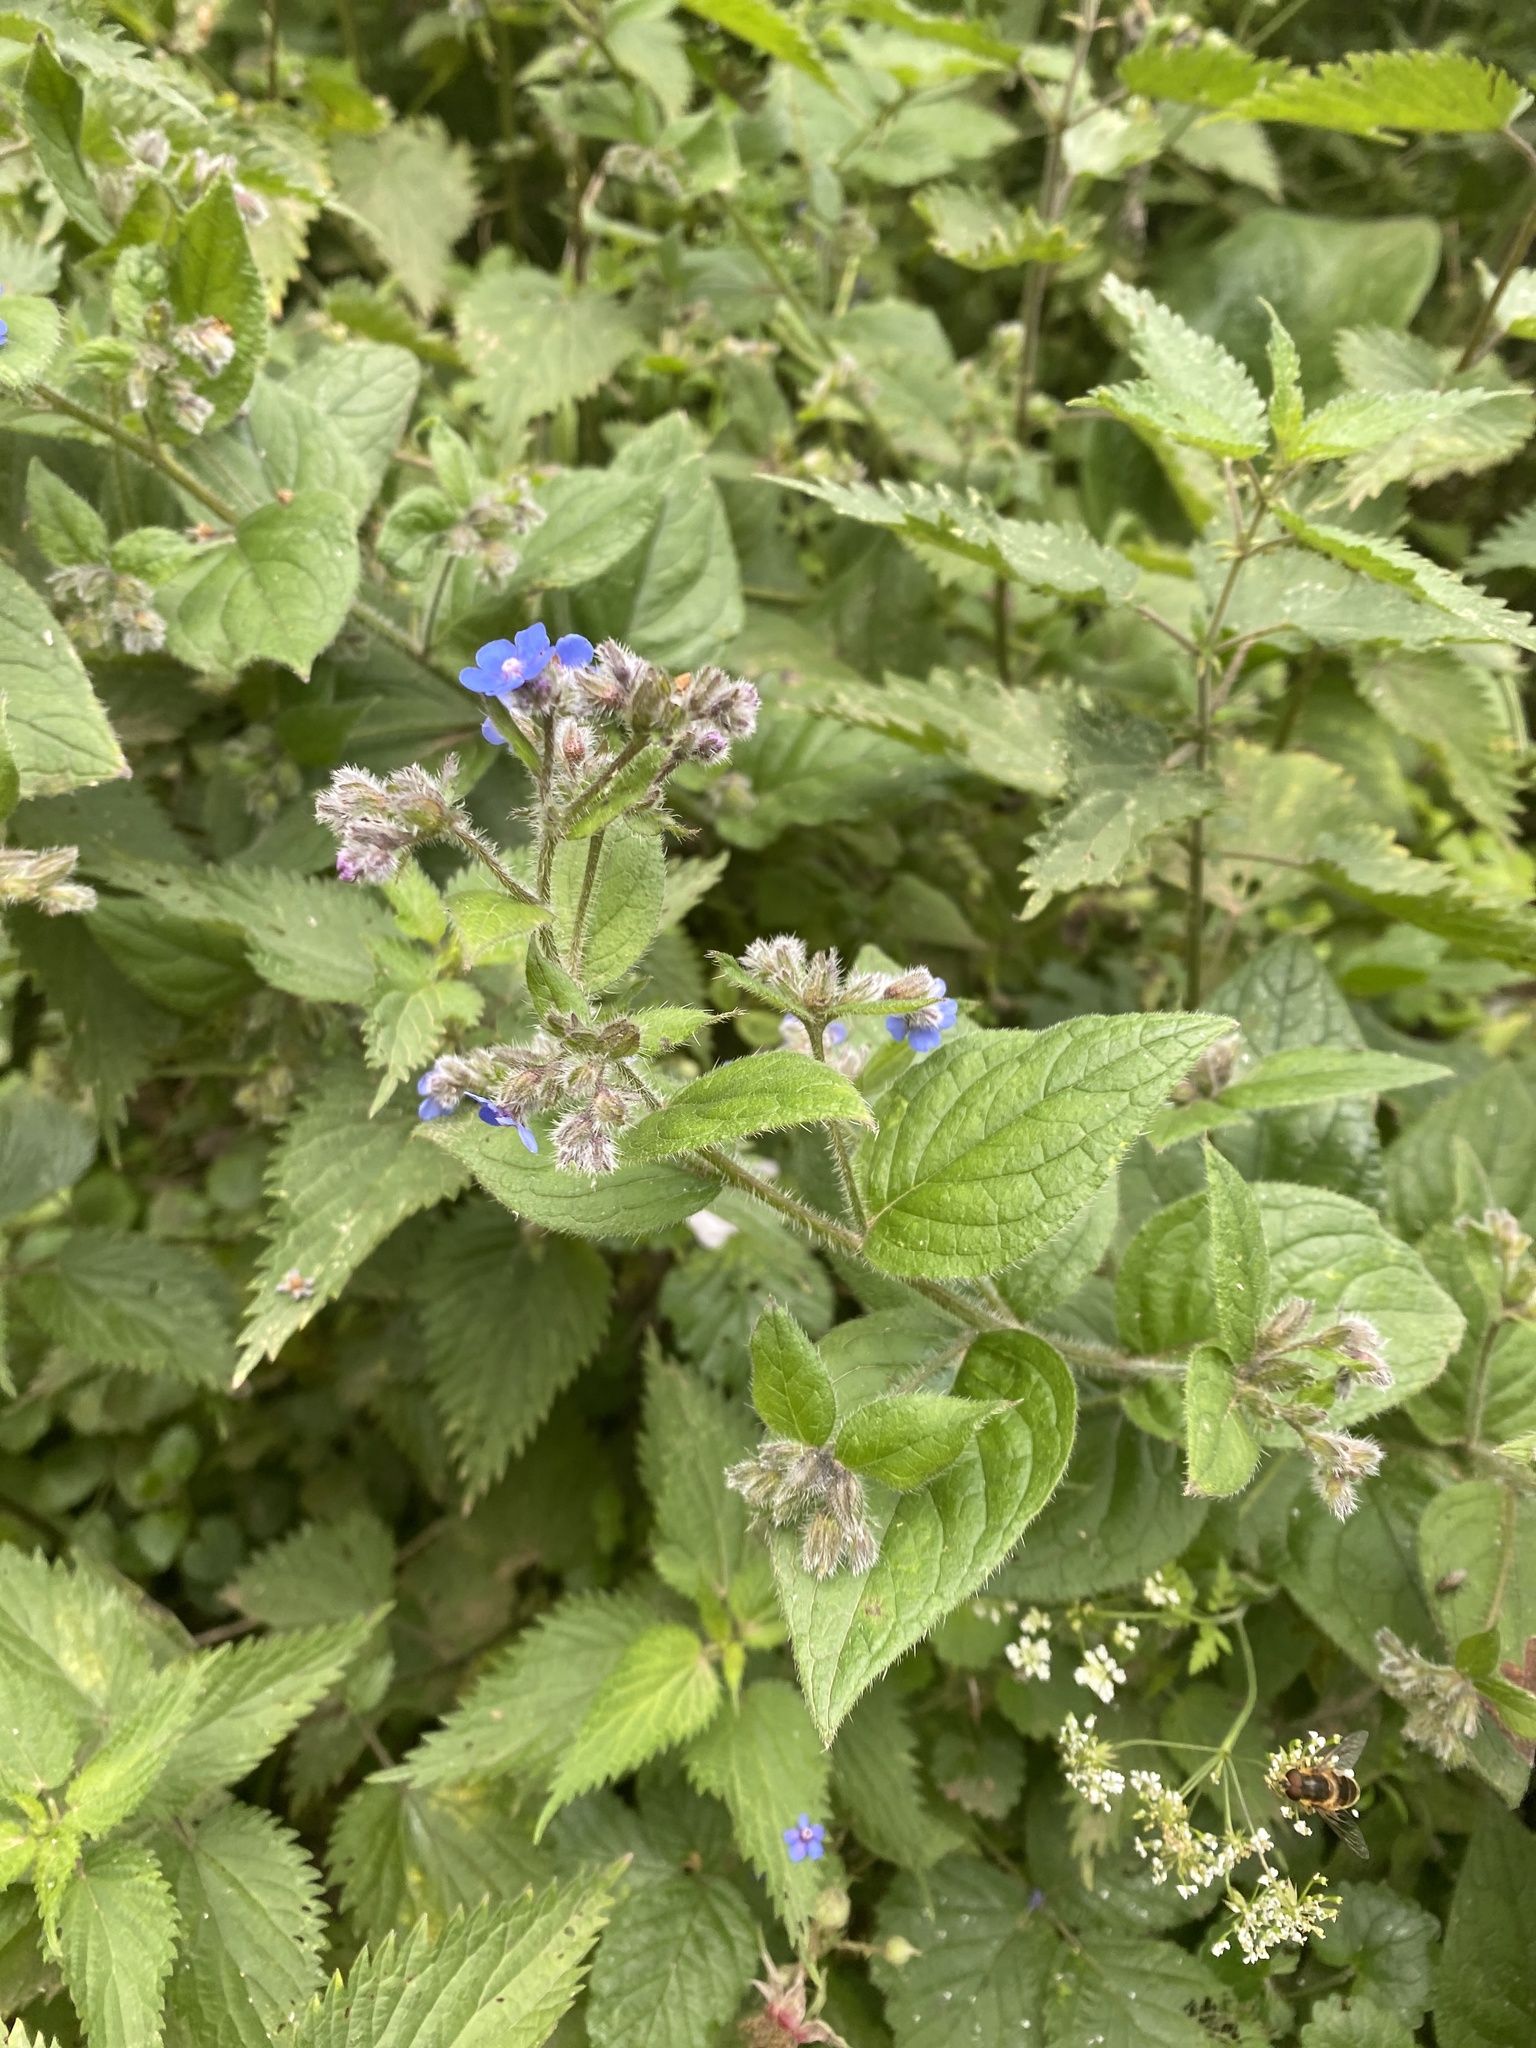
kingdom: Plantae
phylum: Tracheophyta
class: Magnoliopsida
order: Boraginales
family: Boraginaceae
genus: Pentaglottis
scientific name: Pentaglottis sempervirens
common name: Green alkanet
